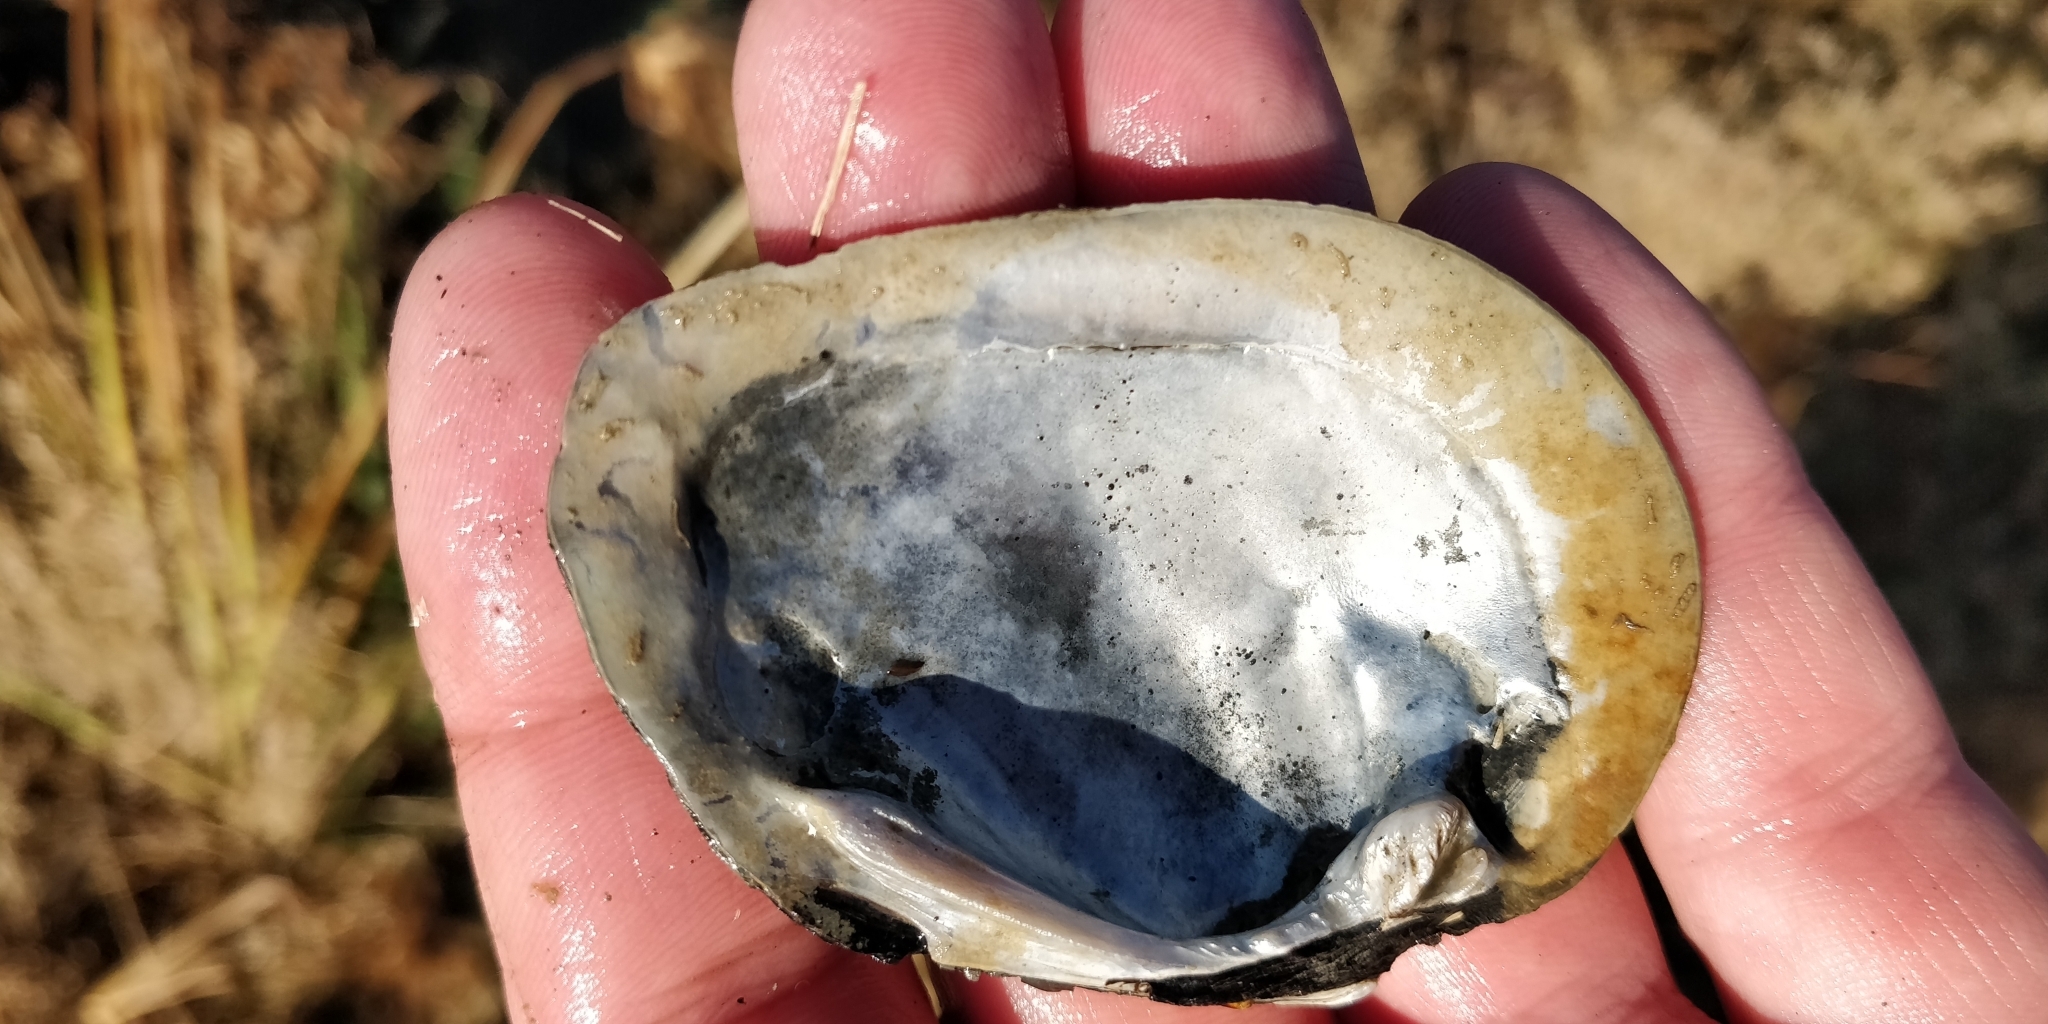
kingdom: Animalia
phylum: Mollusca
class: Bivalvia
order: Unionida
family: Unionidae
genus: Fusconaia
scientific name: Fusconaia flava
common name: Wabash pigtoe
